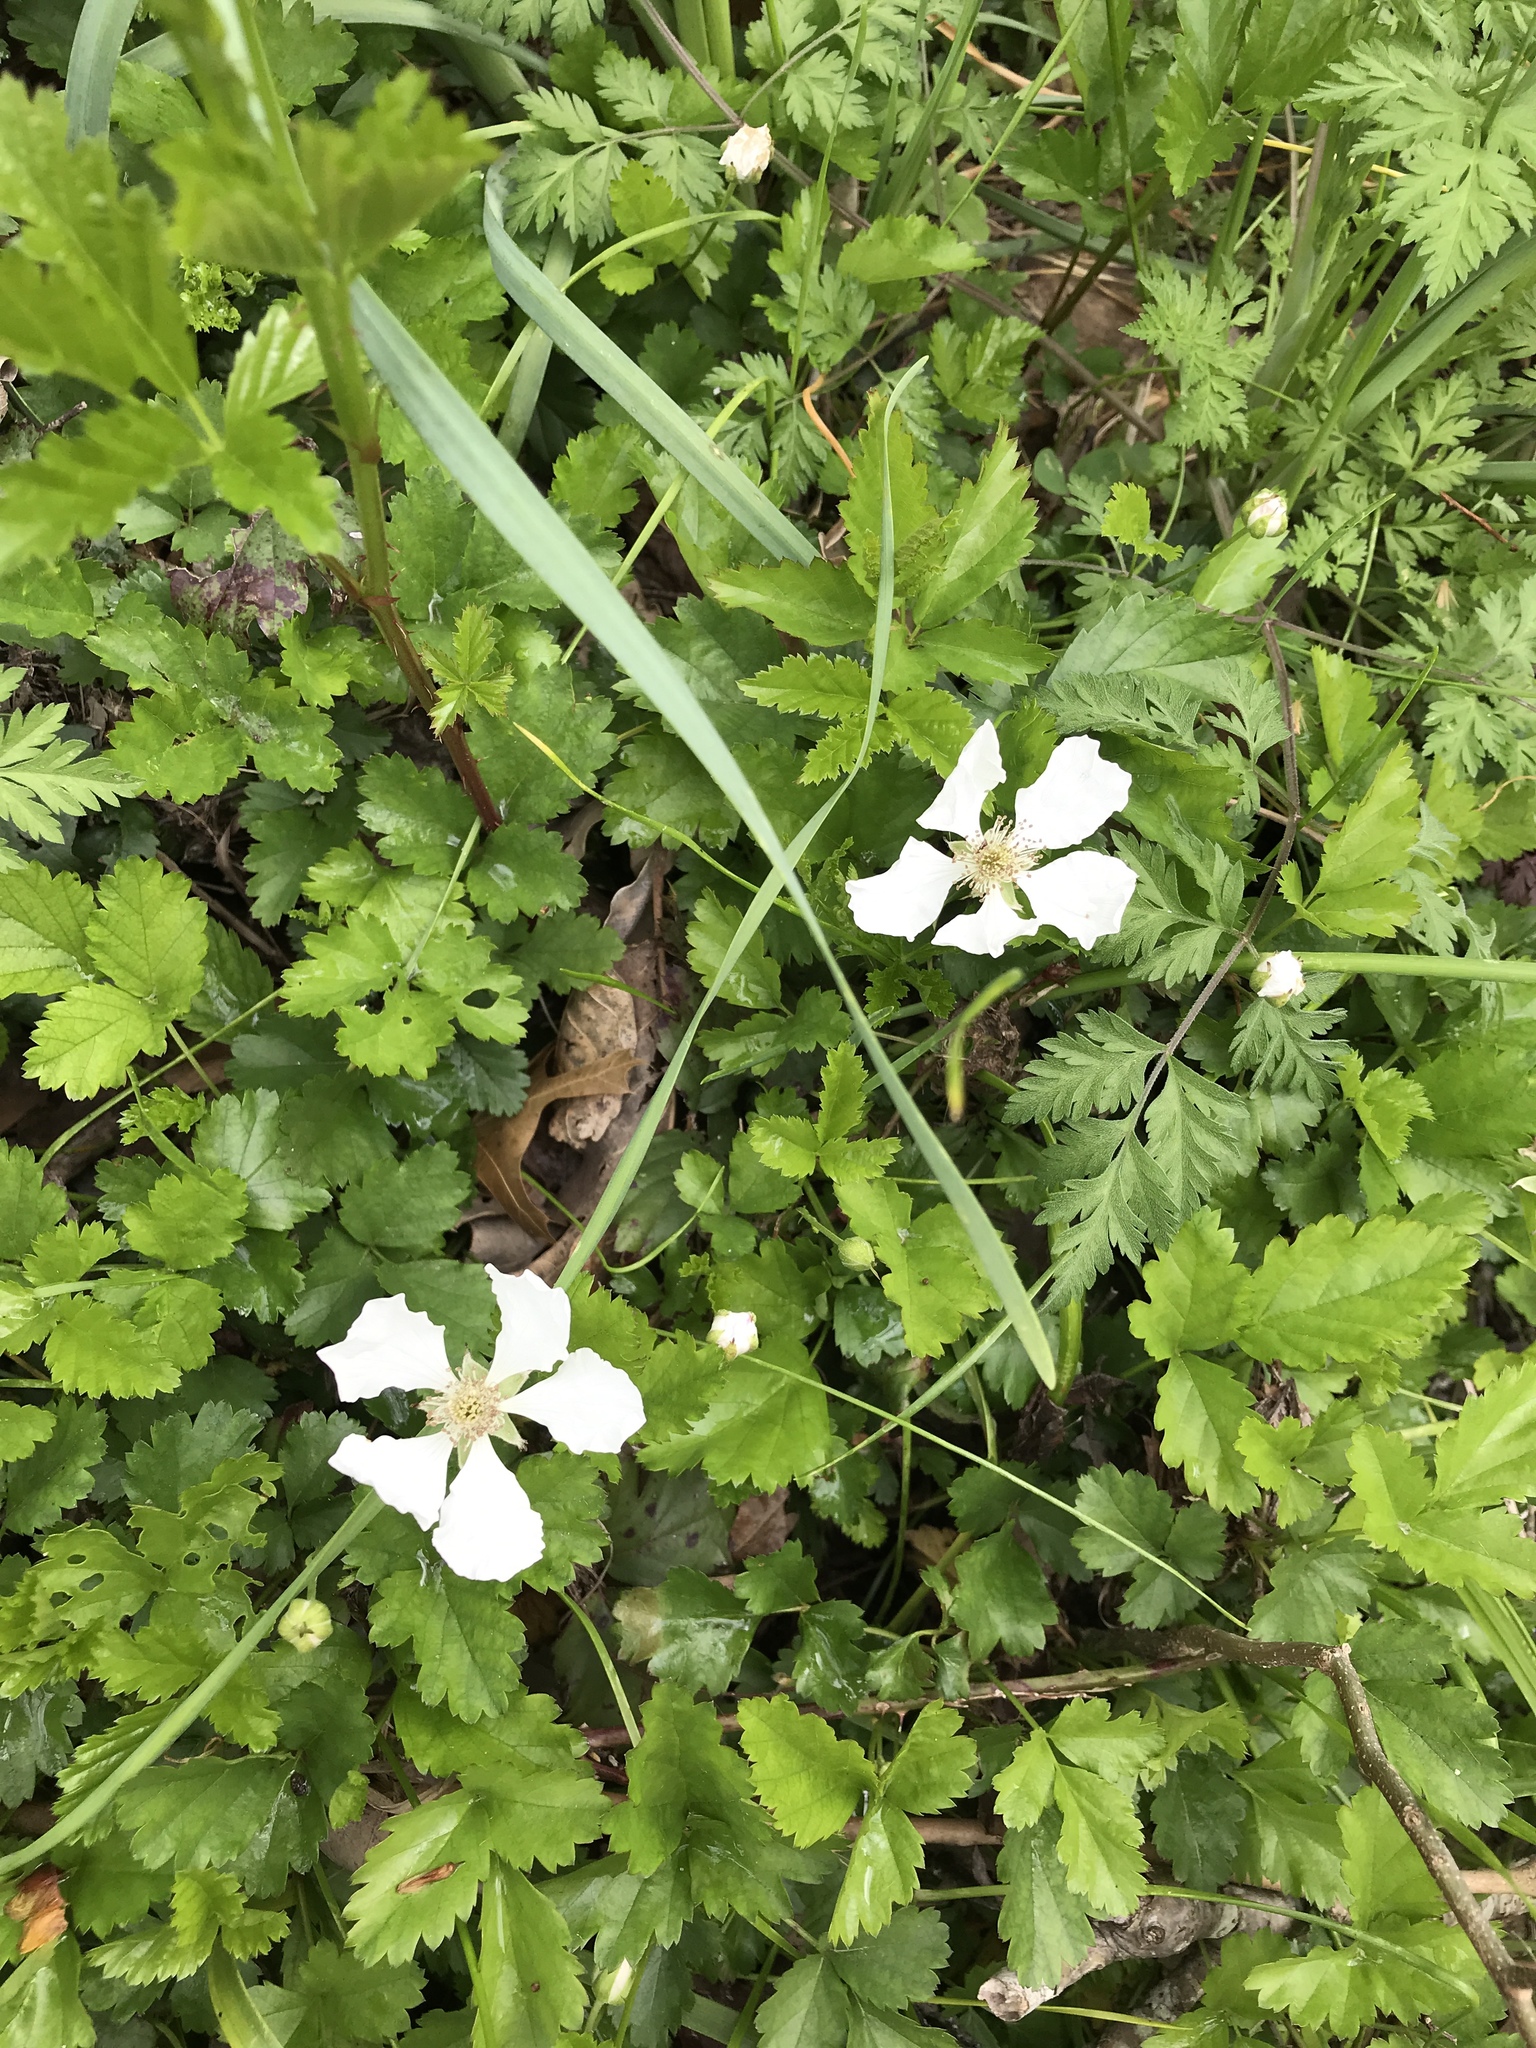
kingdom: Plantae
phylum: Tracheophyta
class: Magnoliopsida
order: Rosales
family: Rosaceae
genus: Rubus
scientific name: Rubus trivialis
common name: Southern dewberry
